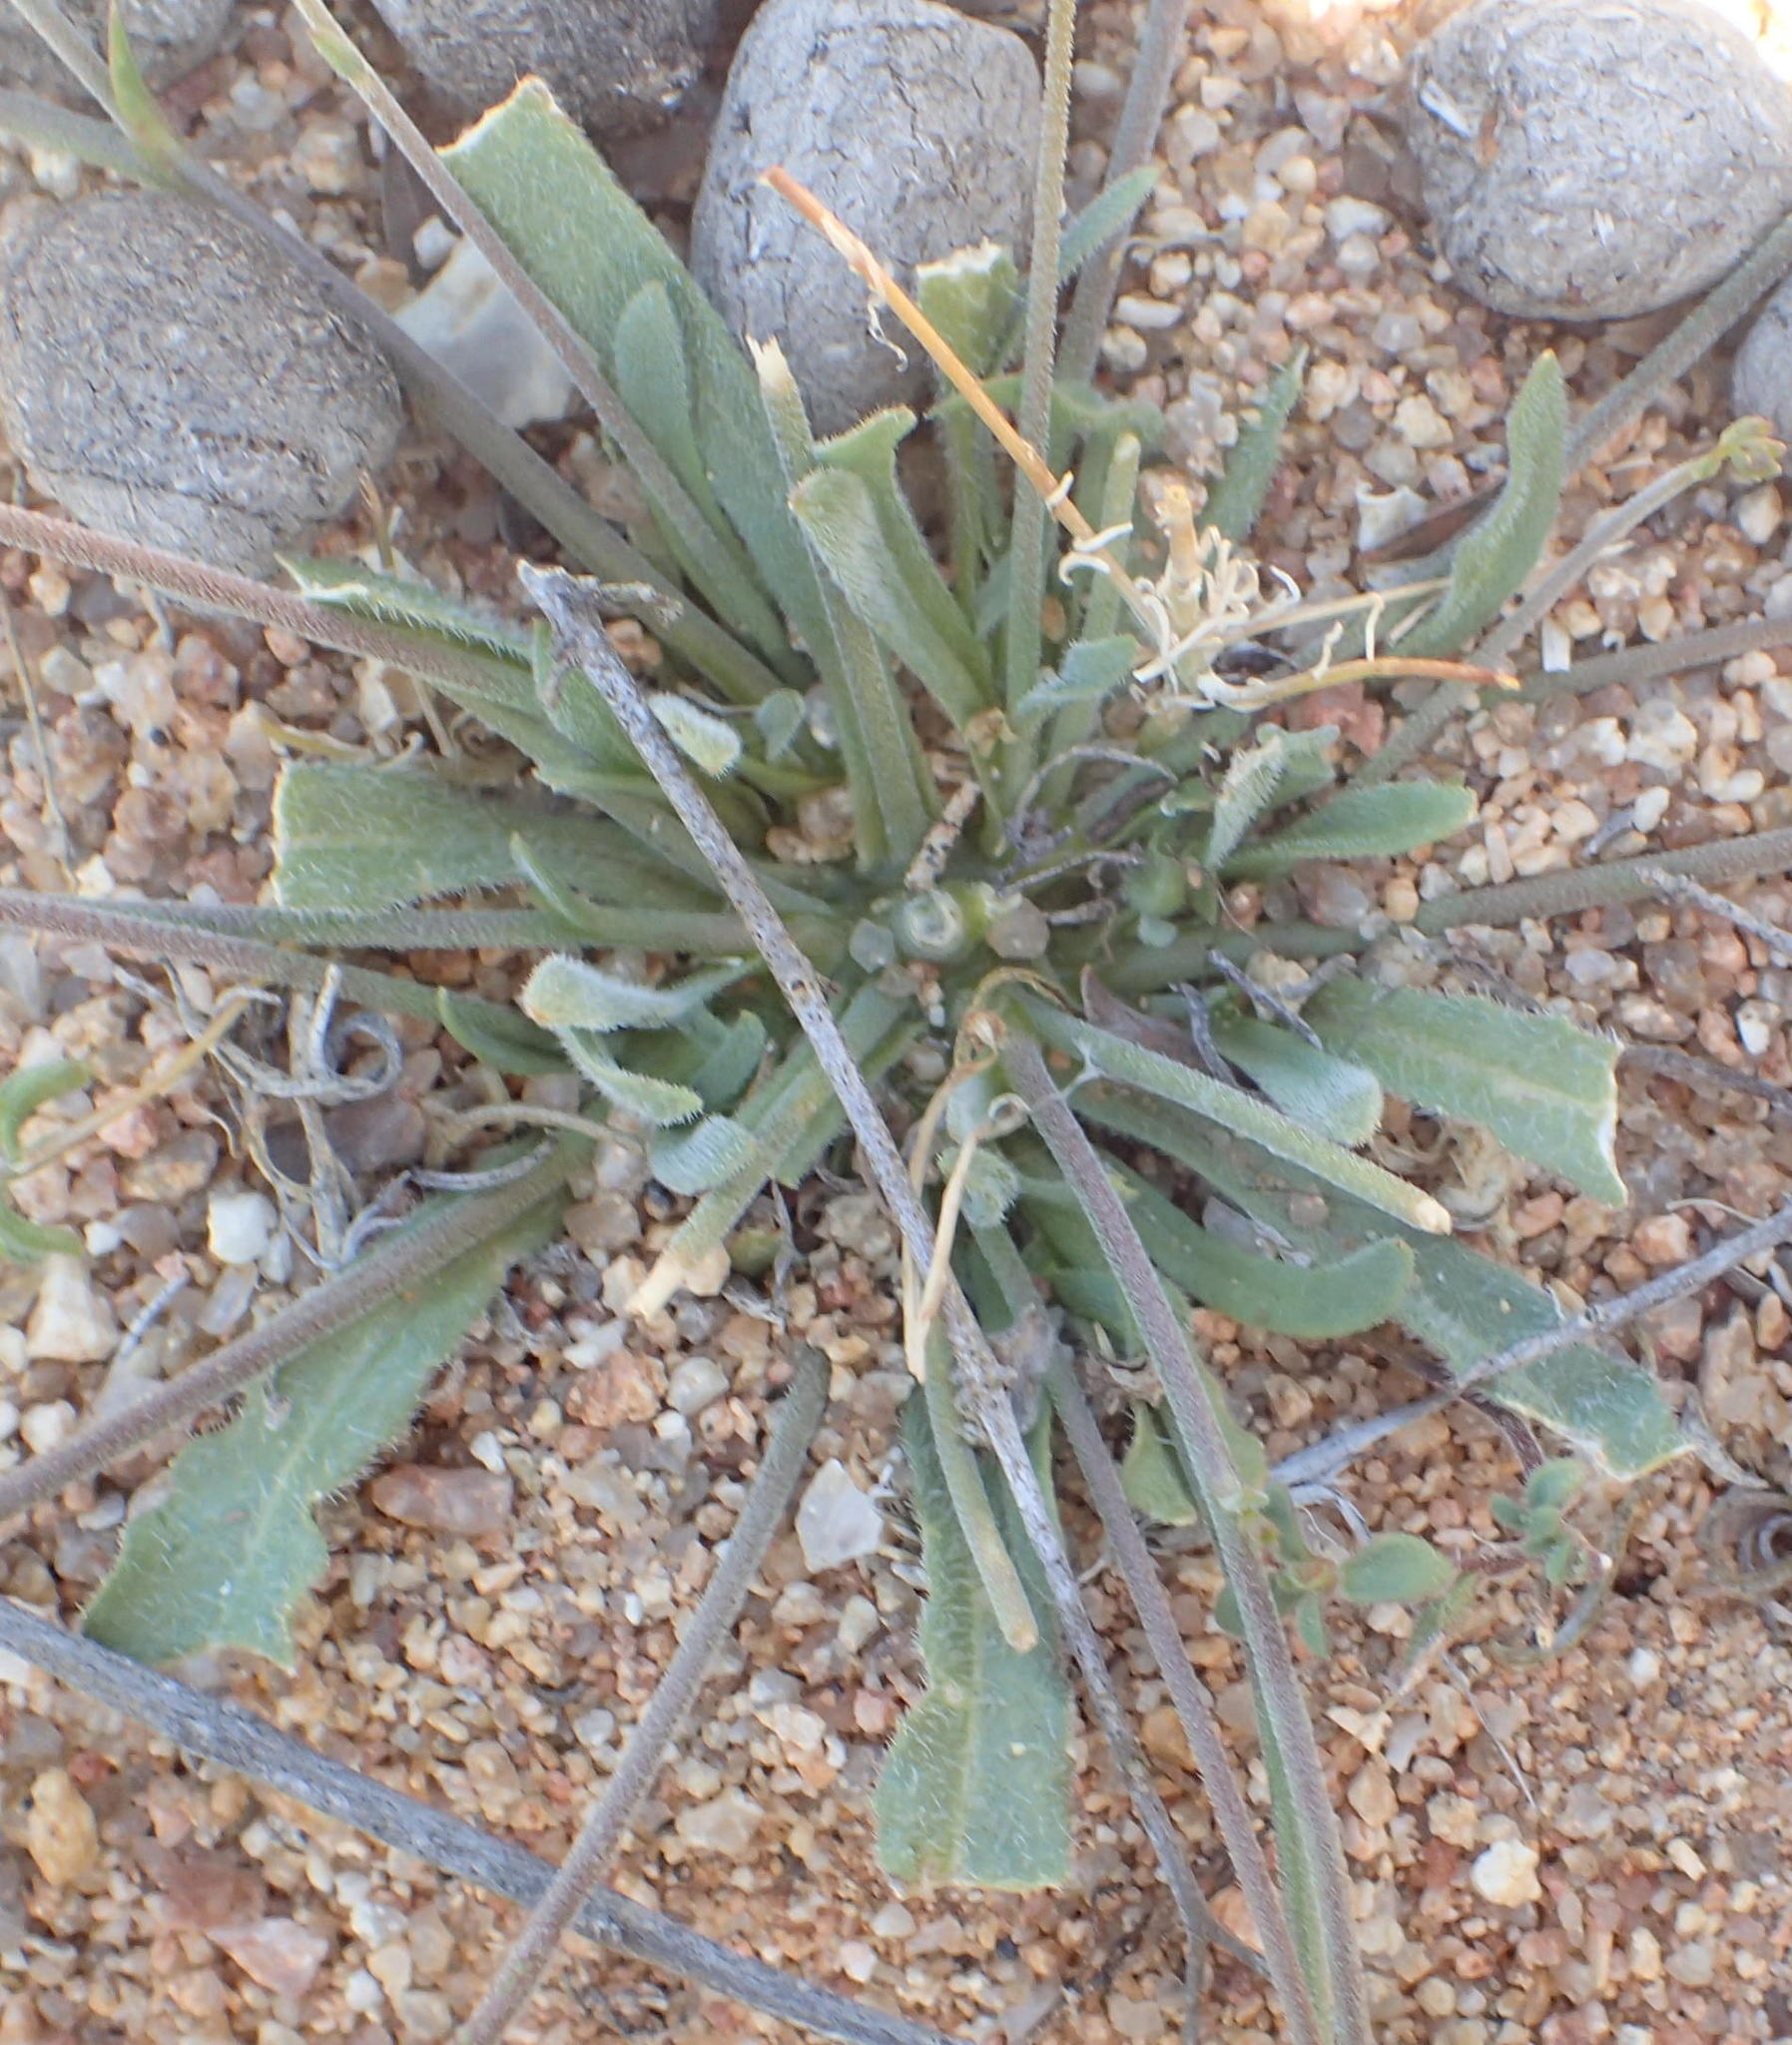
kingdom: Plantae
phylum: Tracheophyta
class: Magnoliopsida
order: Asterales
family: Campanulaceae
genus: Wahlenbergia
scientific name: Wahlenbergia annularis
